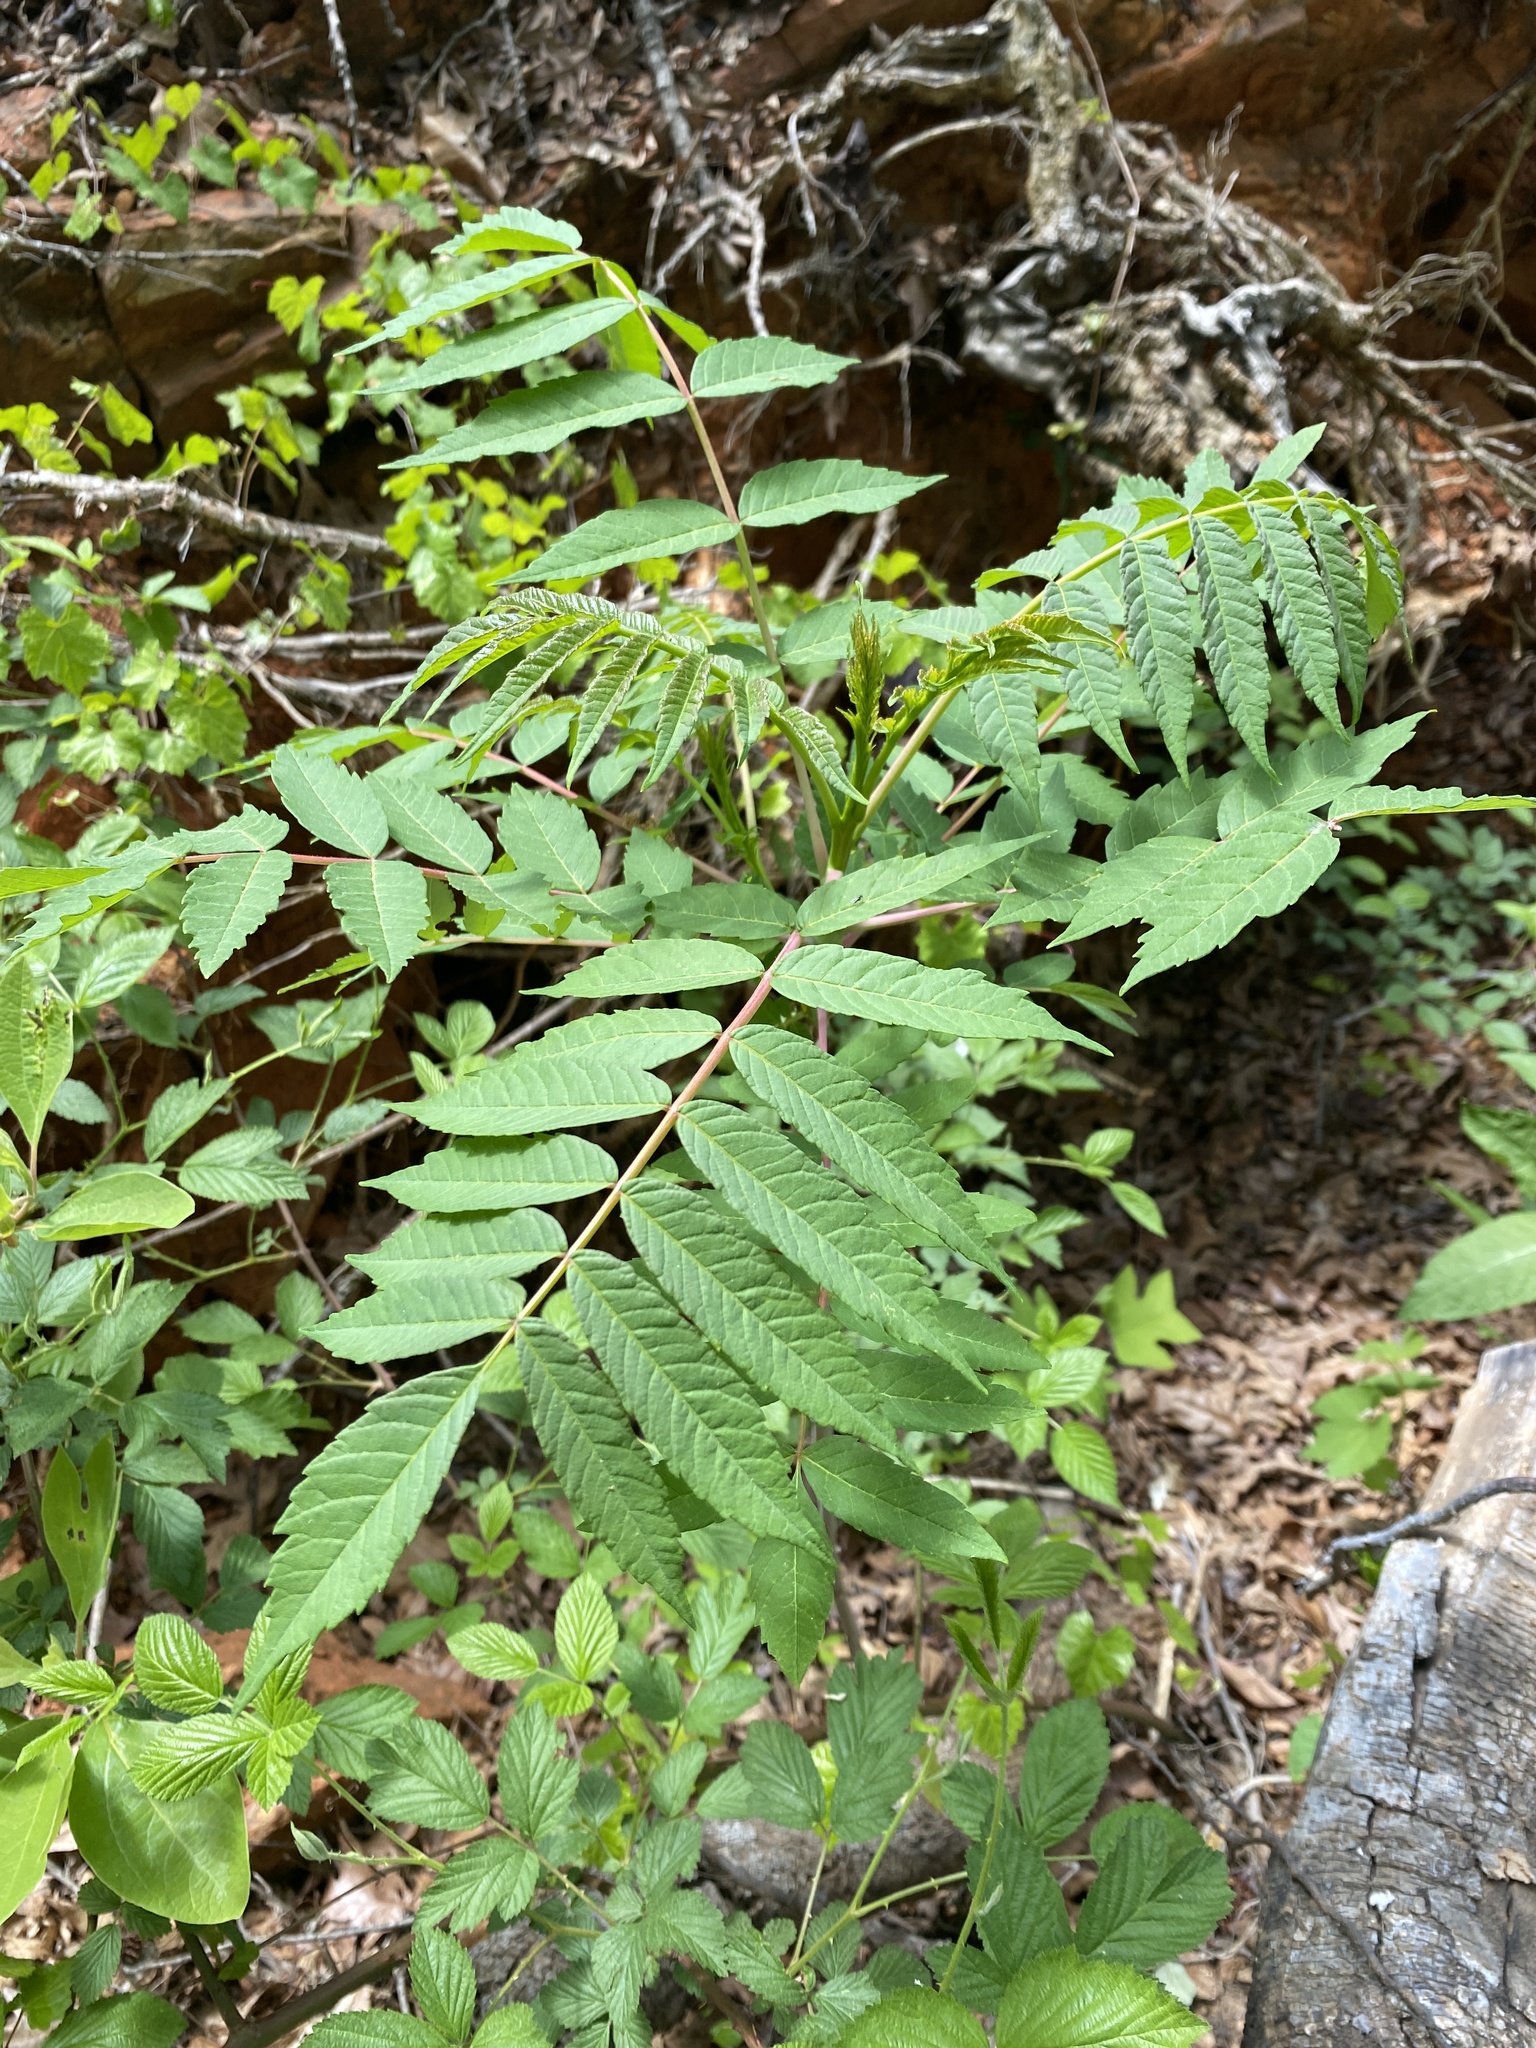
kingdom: Plantae
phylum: Tracheophyta
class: Magnoliopsida
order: Sapindales
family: Anacardiaceae
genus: Rhus
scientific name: Rhus glabra
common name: Scarlet sumac
